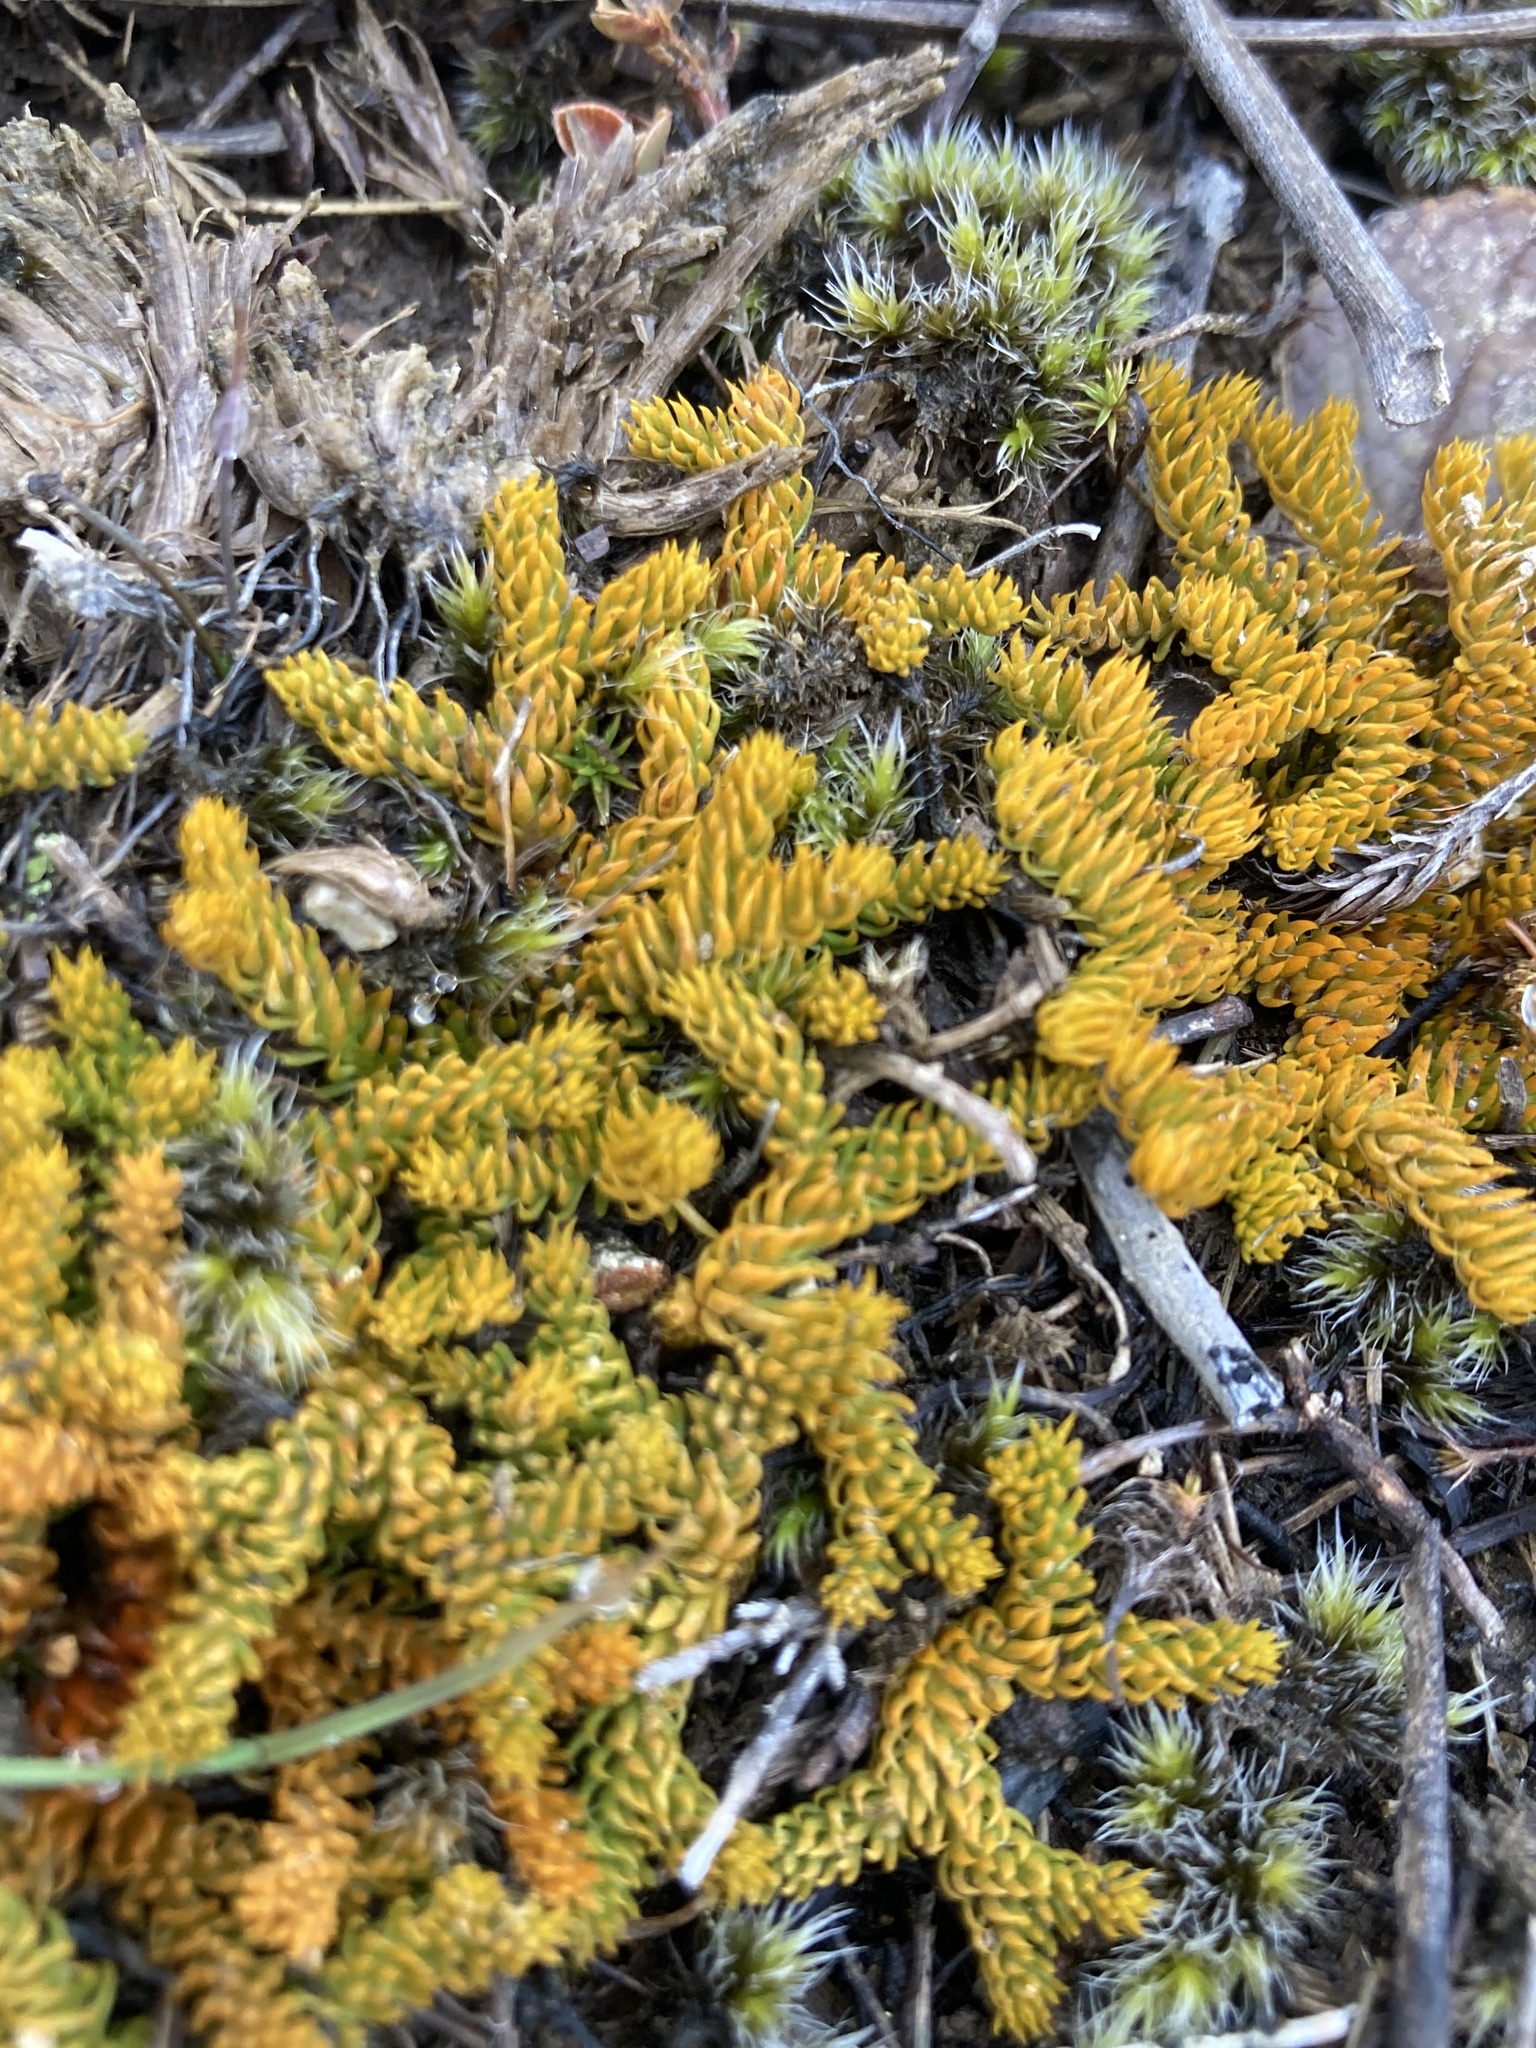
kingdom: Plantae
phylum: Tracheophyta
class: Lycopodiopsida
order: Lycopodiales
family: Lycopodiaceae
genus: Austrolycopodium
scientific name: Austrolycopodium fastigiatum
